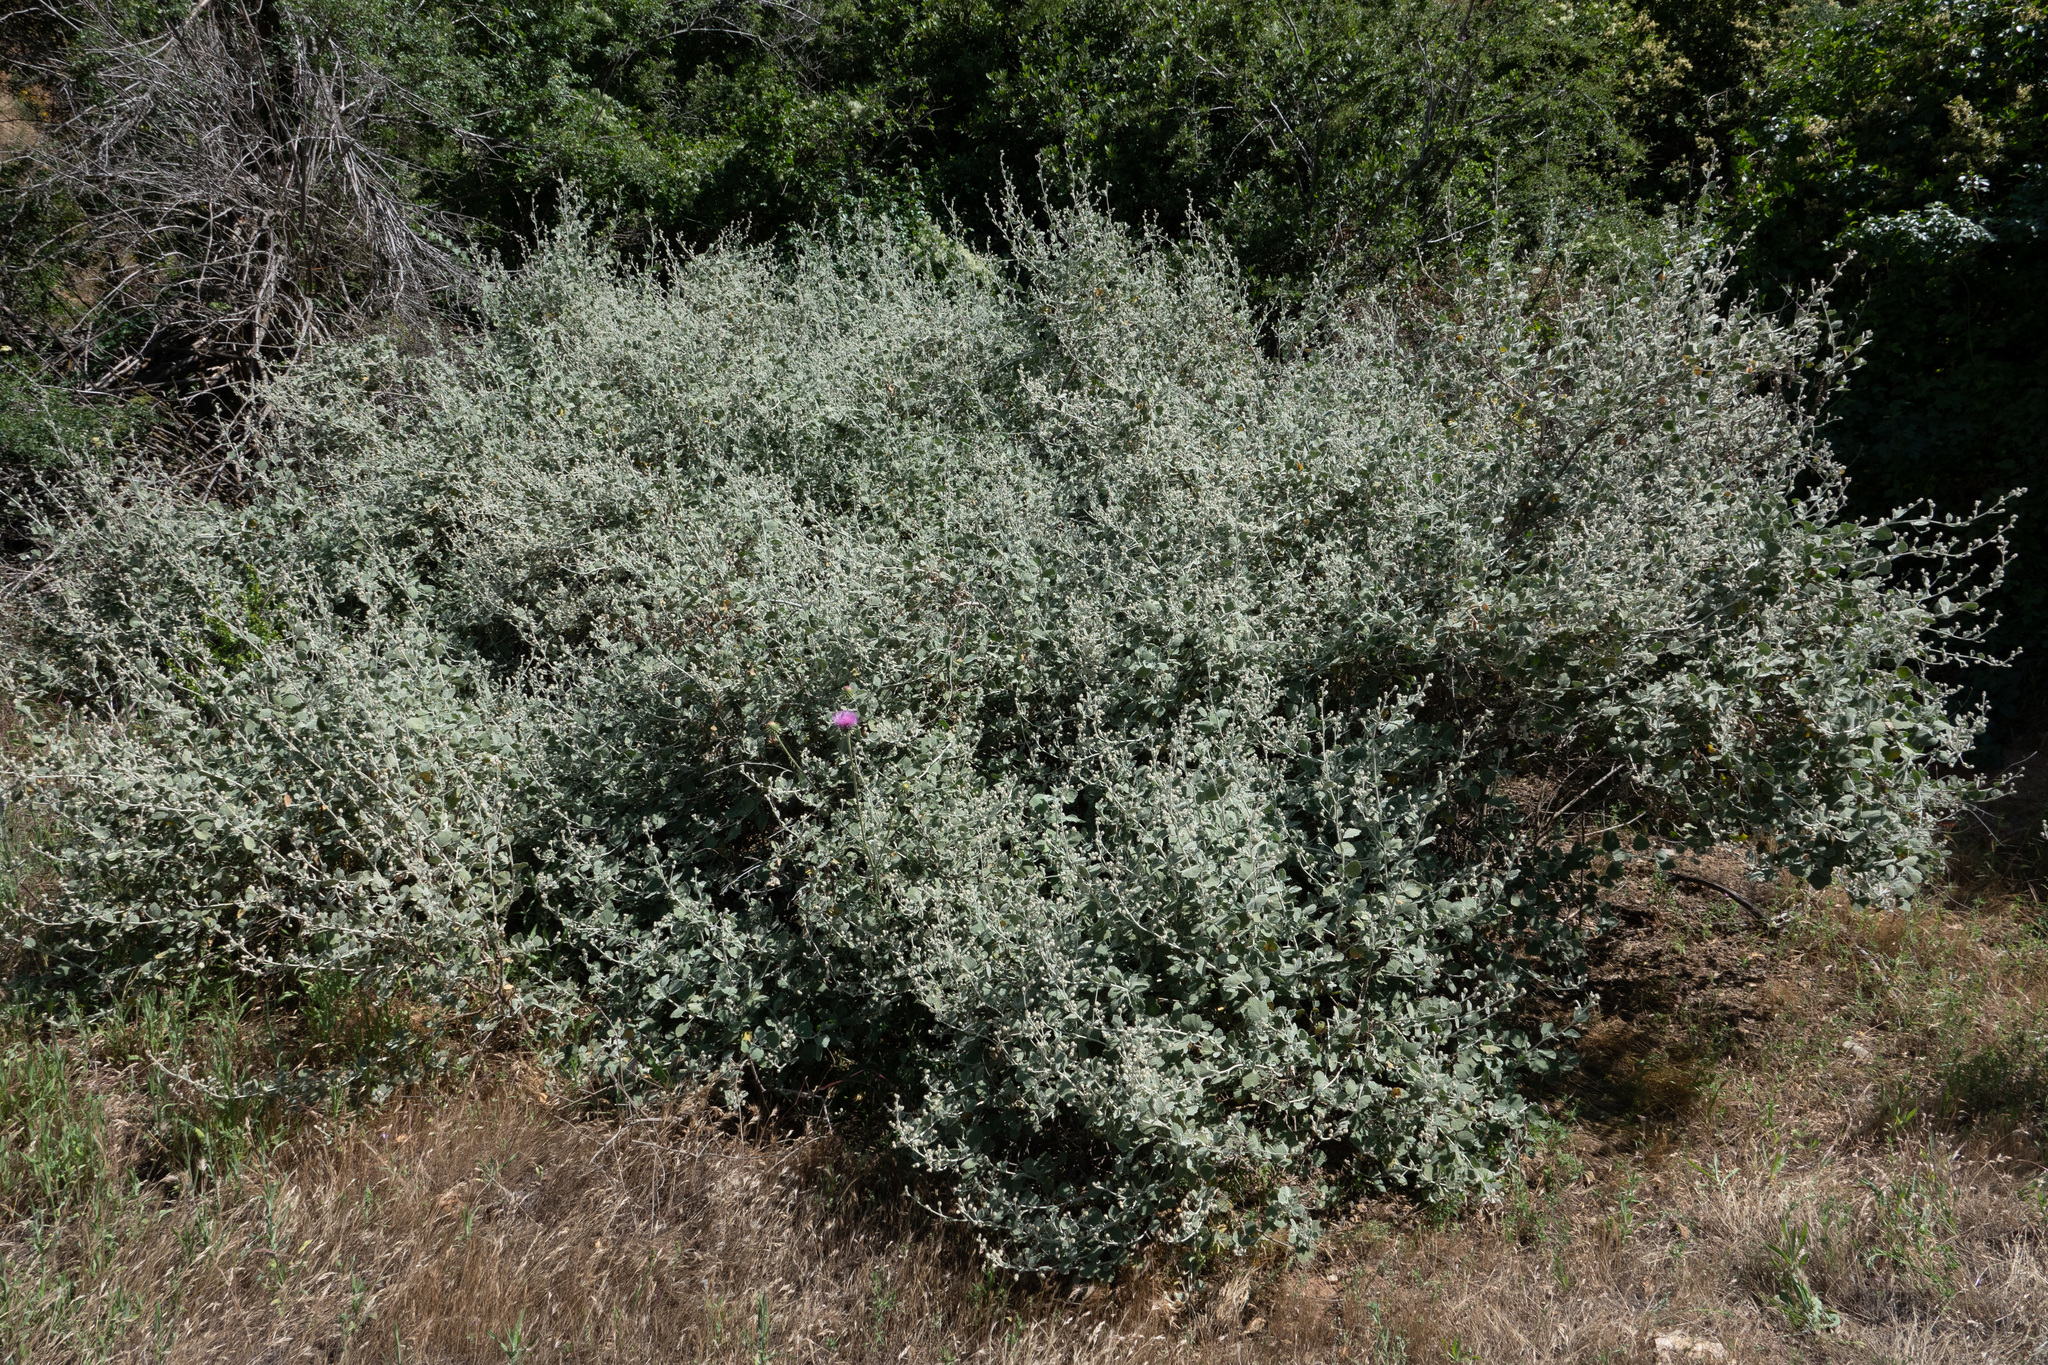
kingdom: Plantae
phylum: Tracheophyta
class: Magnoliopsida
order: Malvales
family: Malvaceae
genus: Malacothamnus
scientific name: Malacothamnus jonesii
